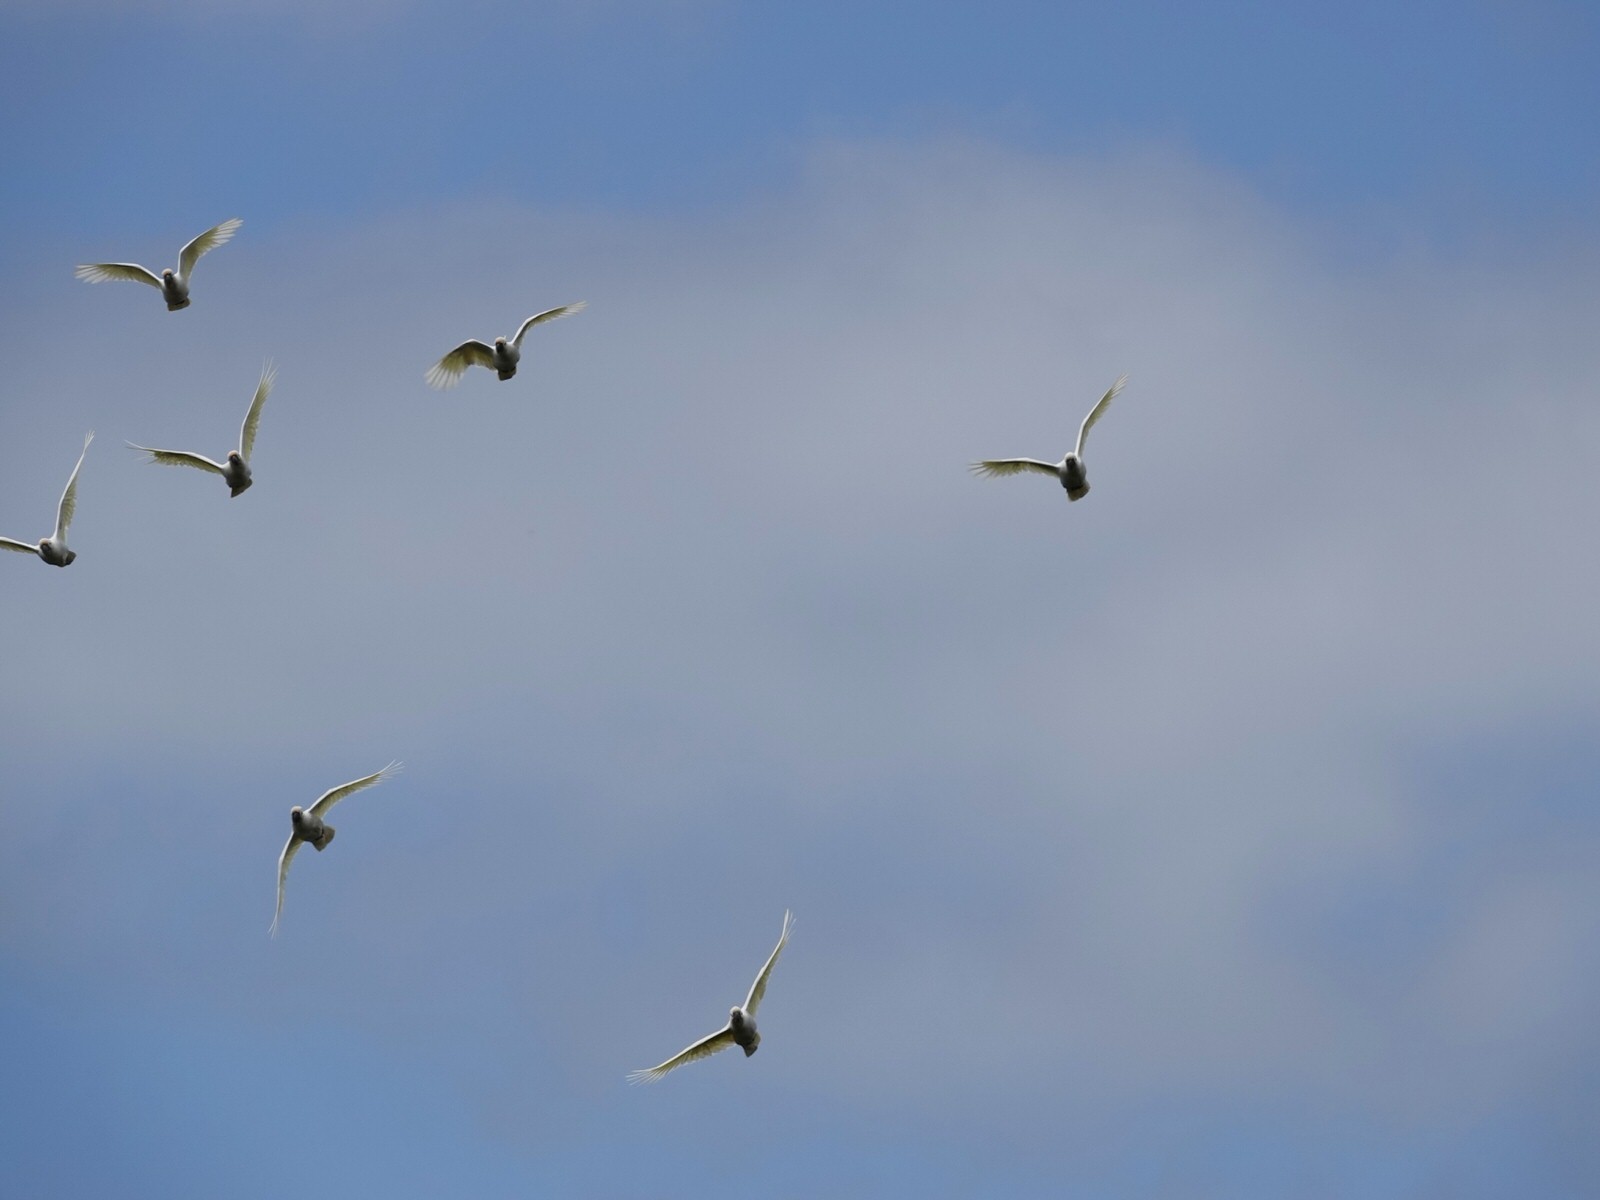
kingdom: Animalia
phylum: Chordata
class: Aves
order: Psittaciformes
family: Psittacidae
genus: Cacatua
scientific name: Cacatua galerita
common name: Sulphur-crested cockatoo
